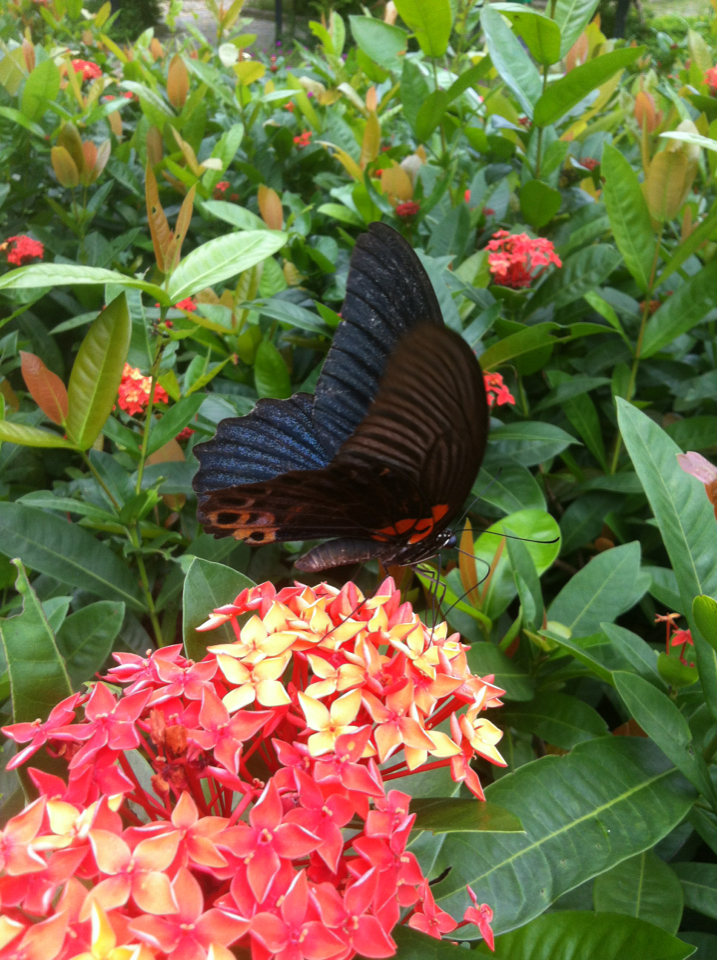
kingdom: Animalia
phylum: Arthropoda
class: Insecta
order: Lepidoptera
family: Papilionidae
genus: Papilio
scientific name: Papilio memnon
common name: Great mormon
